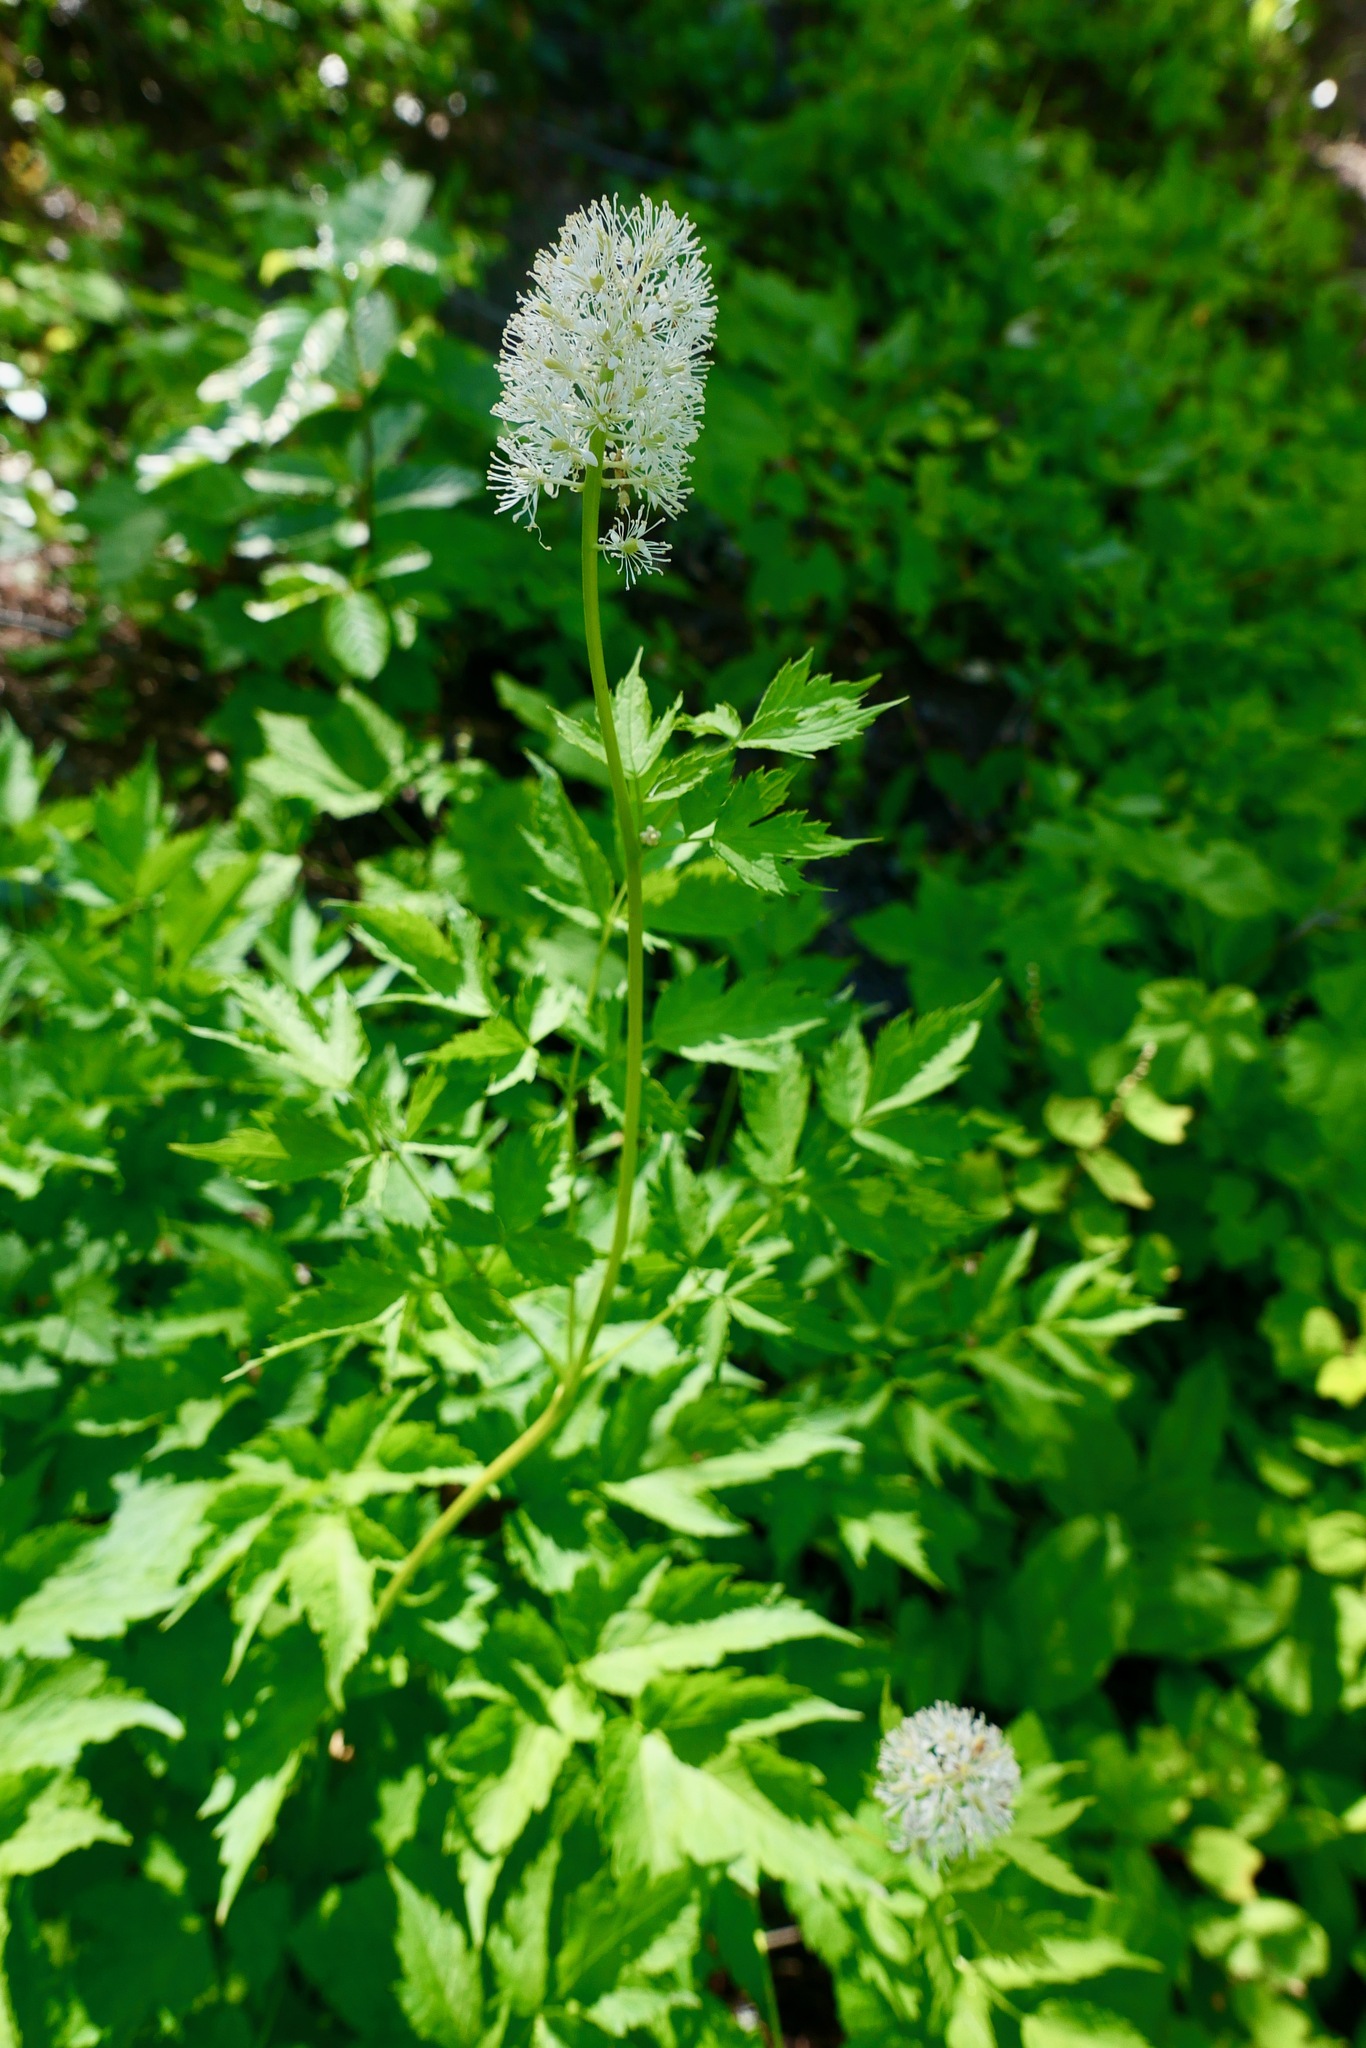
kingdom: Plantae
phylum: Tracheophyta
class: Magnoliopsida
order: Ranunculales
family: Ranunculaceae
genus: Actaea
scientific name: Actaea rubra
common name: Red baneberry
